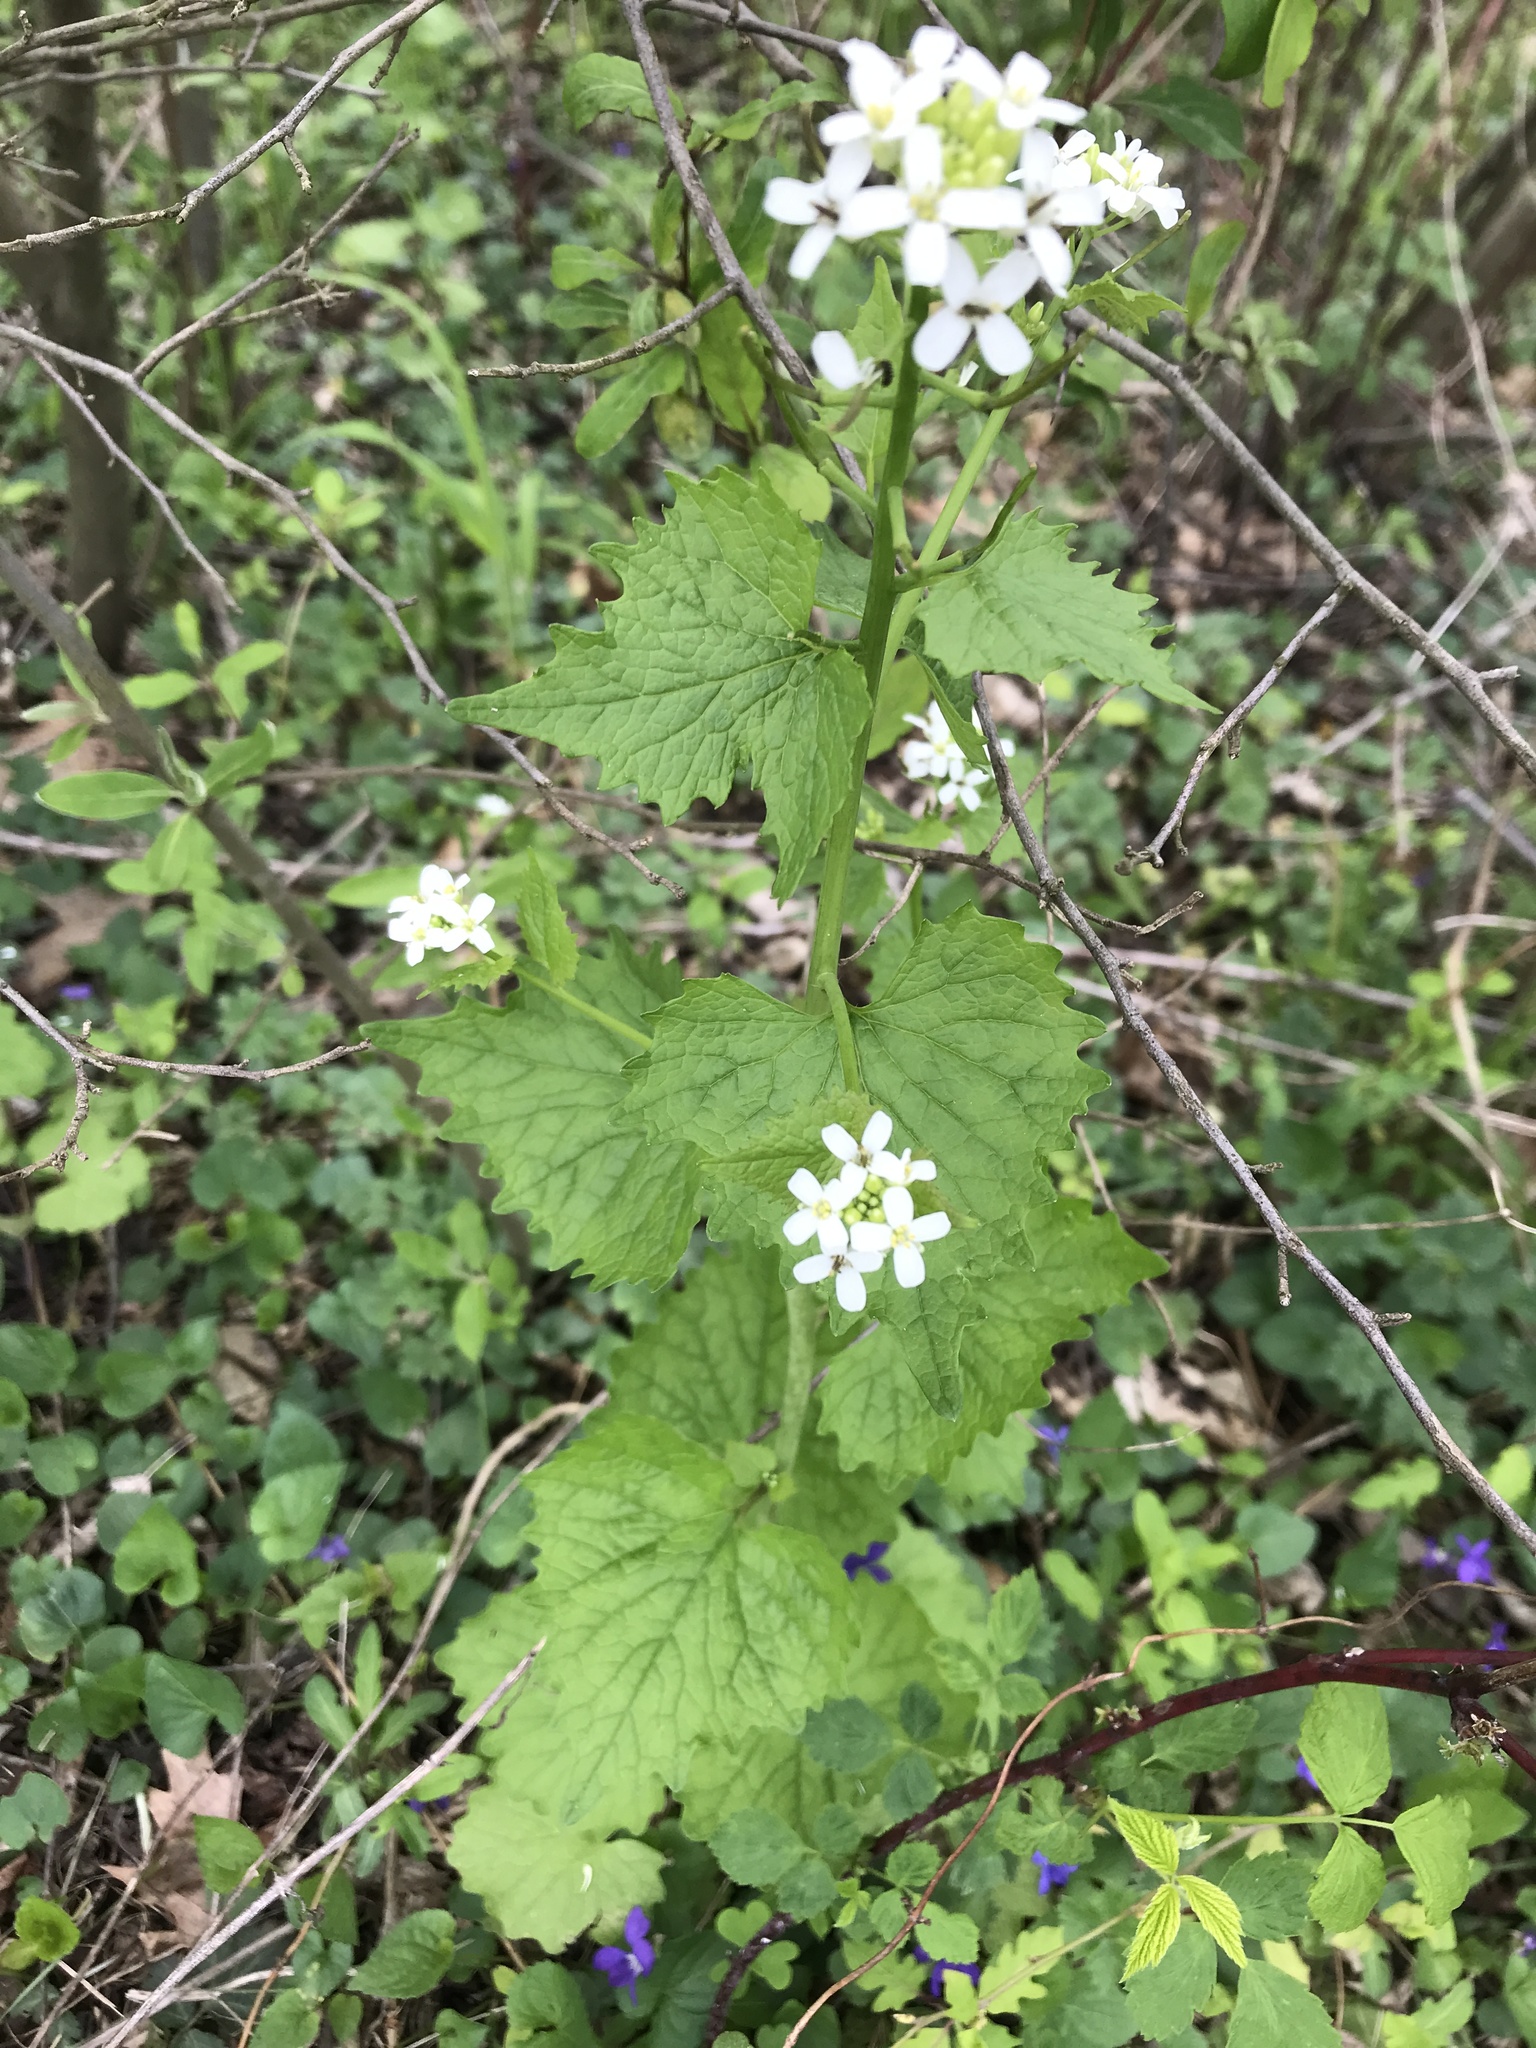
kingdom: Plantae
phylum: Tracheophyta
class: Magnoliopsida
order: Brassicales
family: Brassicaceae
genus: Alliaria
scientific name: Alliaria petiolata
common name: Garlic mustard
